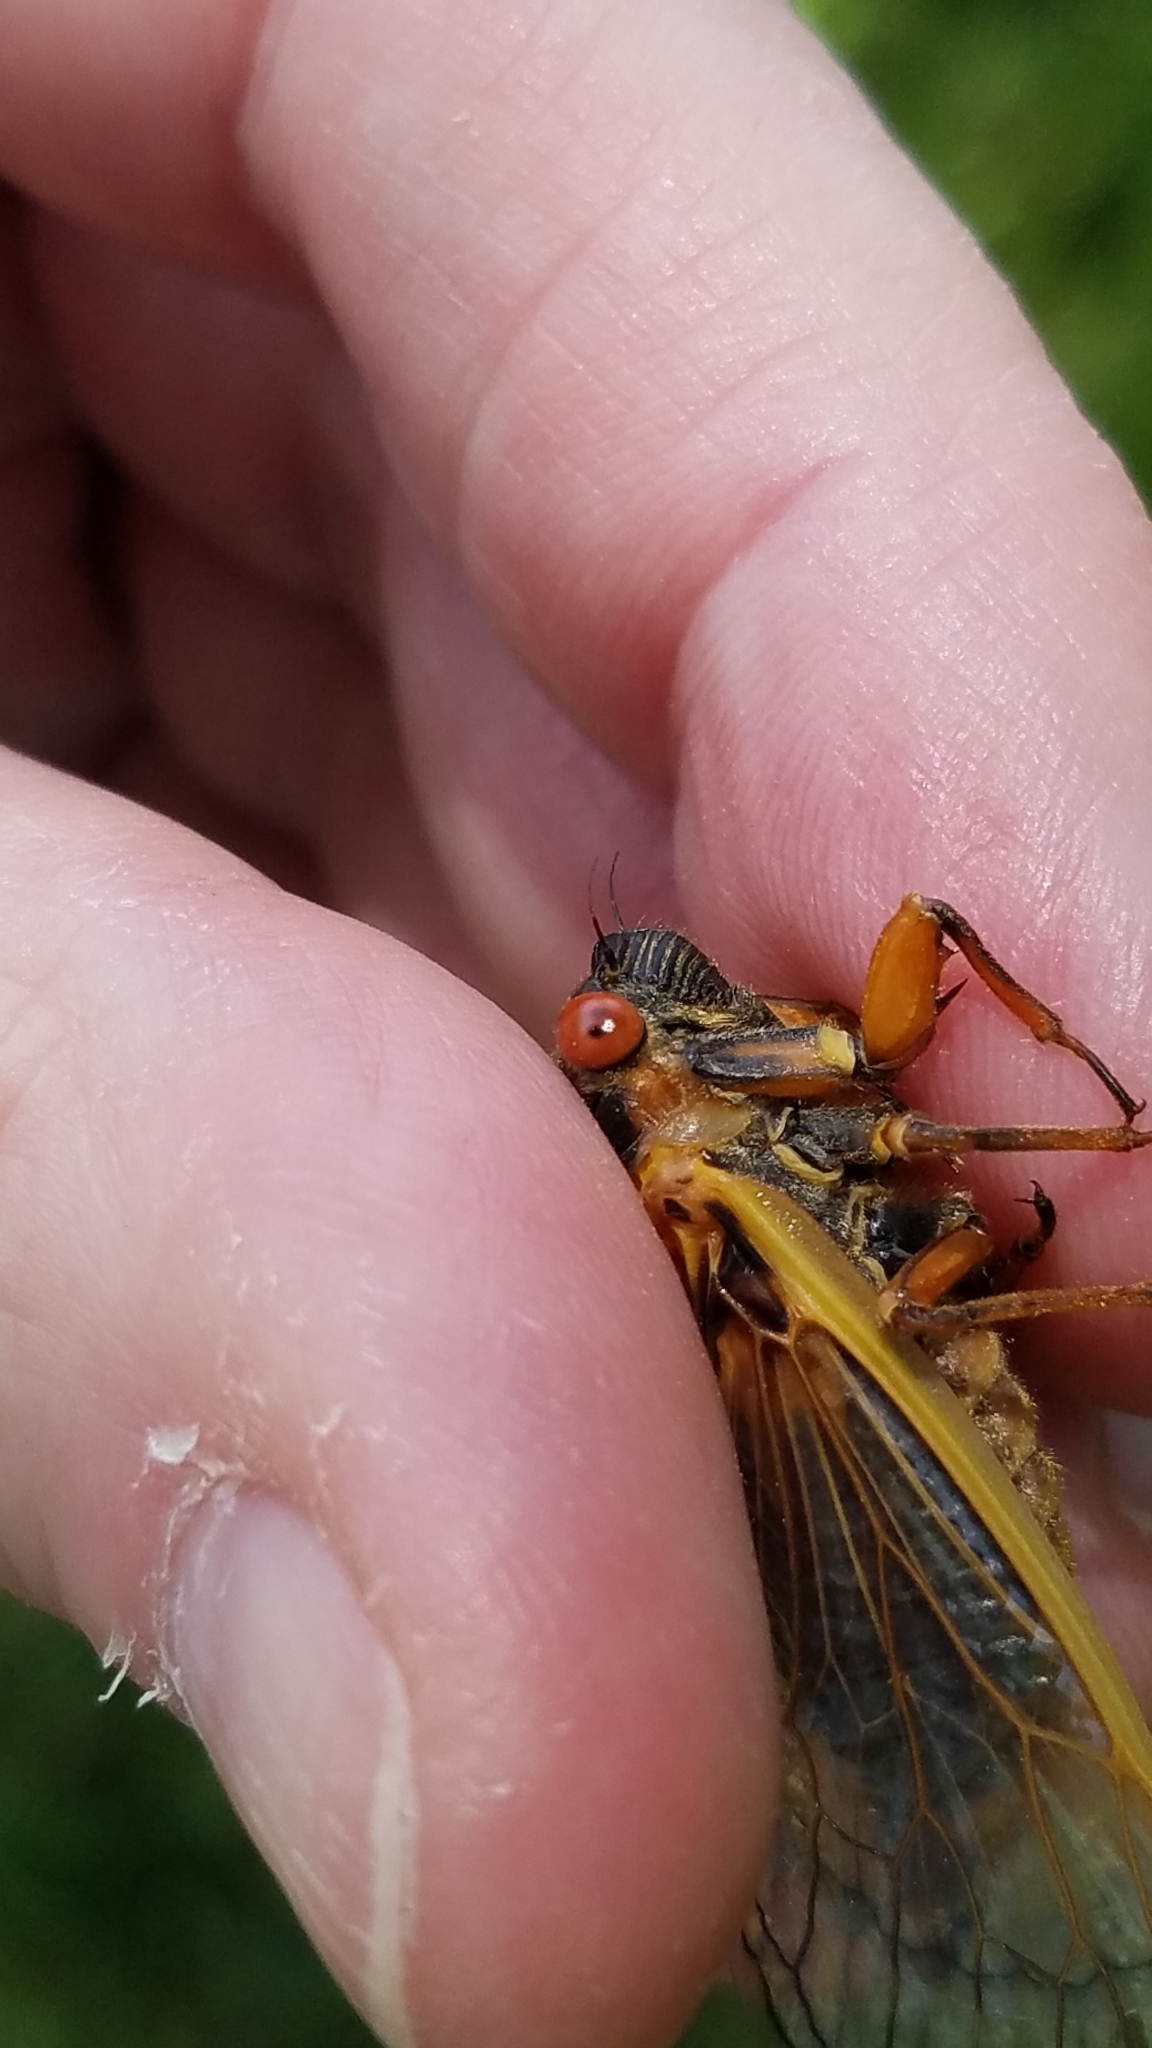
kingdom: Animalia
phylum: Arthropoda
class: Insecta
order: Hemiptera
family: Cicadidae
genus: Magicicada
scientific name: Magicicada septendecim
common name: Periodical cicada
